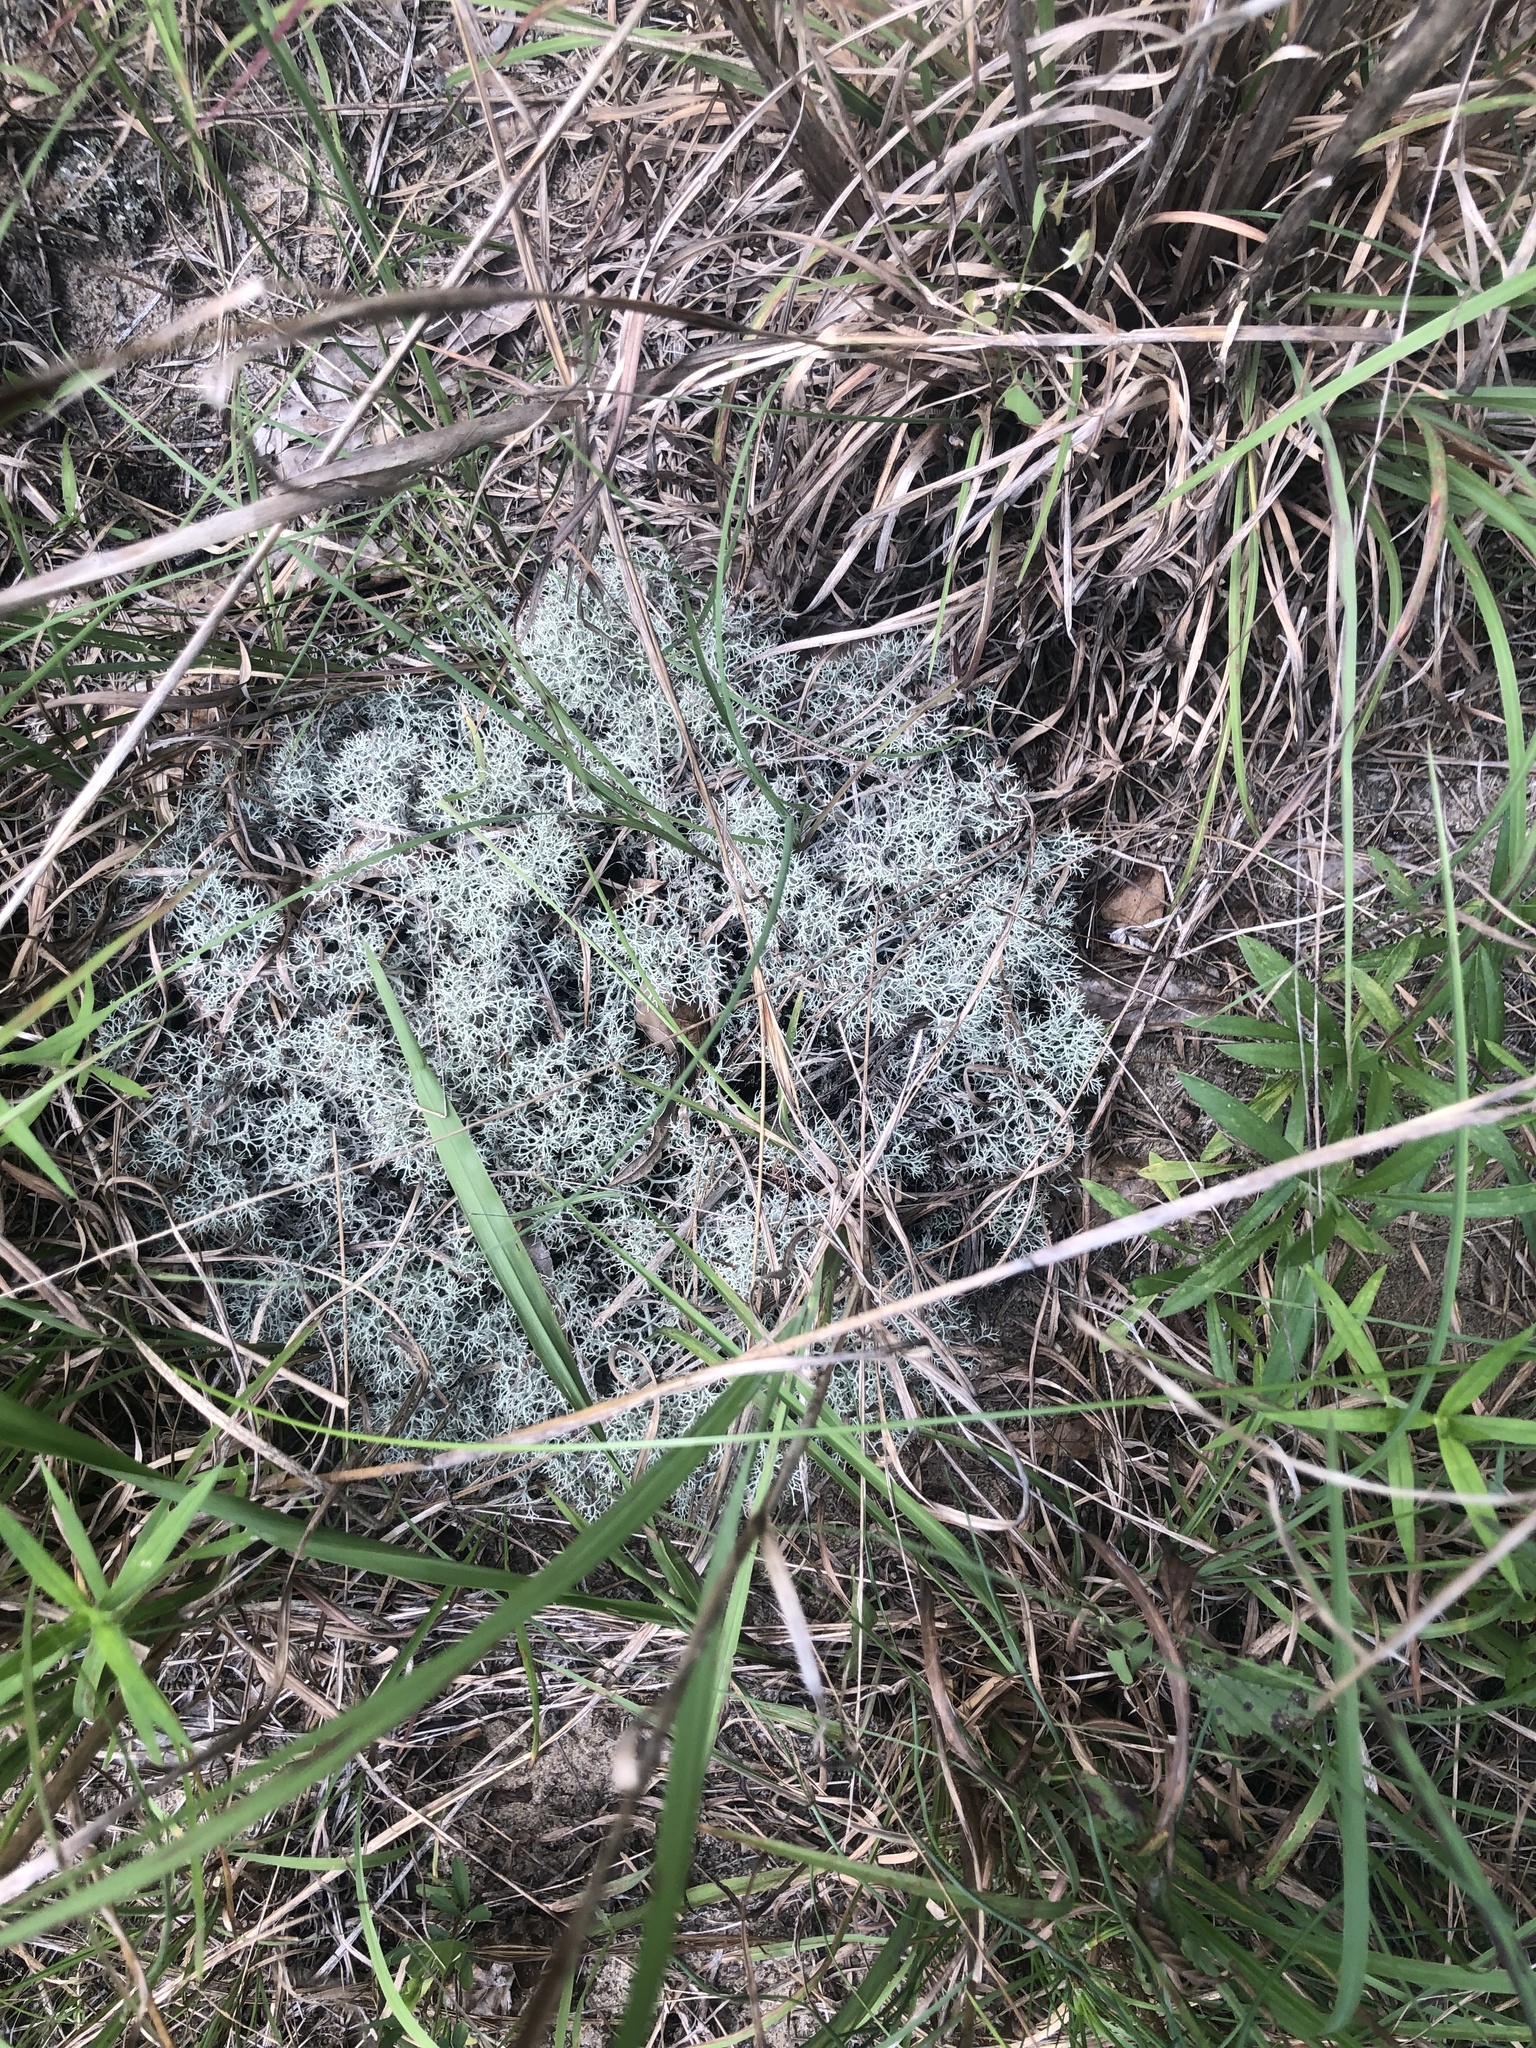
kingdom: Fungi
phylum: Ascomycota
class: Lecanoromycetes
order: Lecanorales
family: Cladoniaceae
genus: Cladonia
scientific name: Cladonia subtenuis
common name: Dixie reindeer lichen
